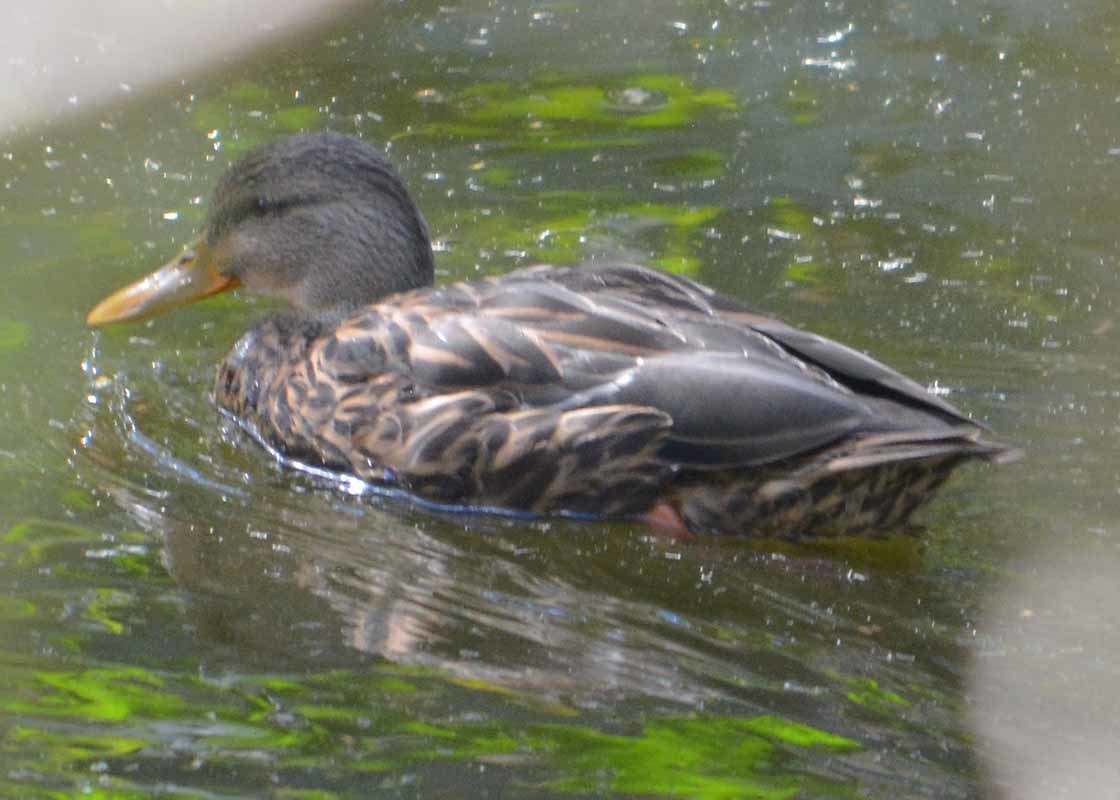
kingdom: Animalia
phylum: Chordata
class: Aves
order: Anseriformes
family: Anatidae
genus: Anas
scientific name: Anas diazi
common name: Mexican duck
